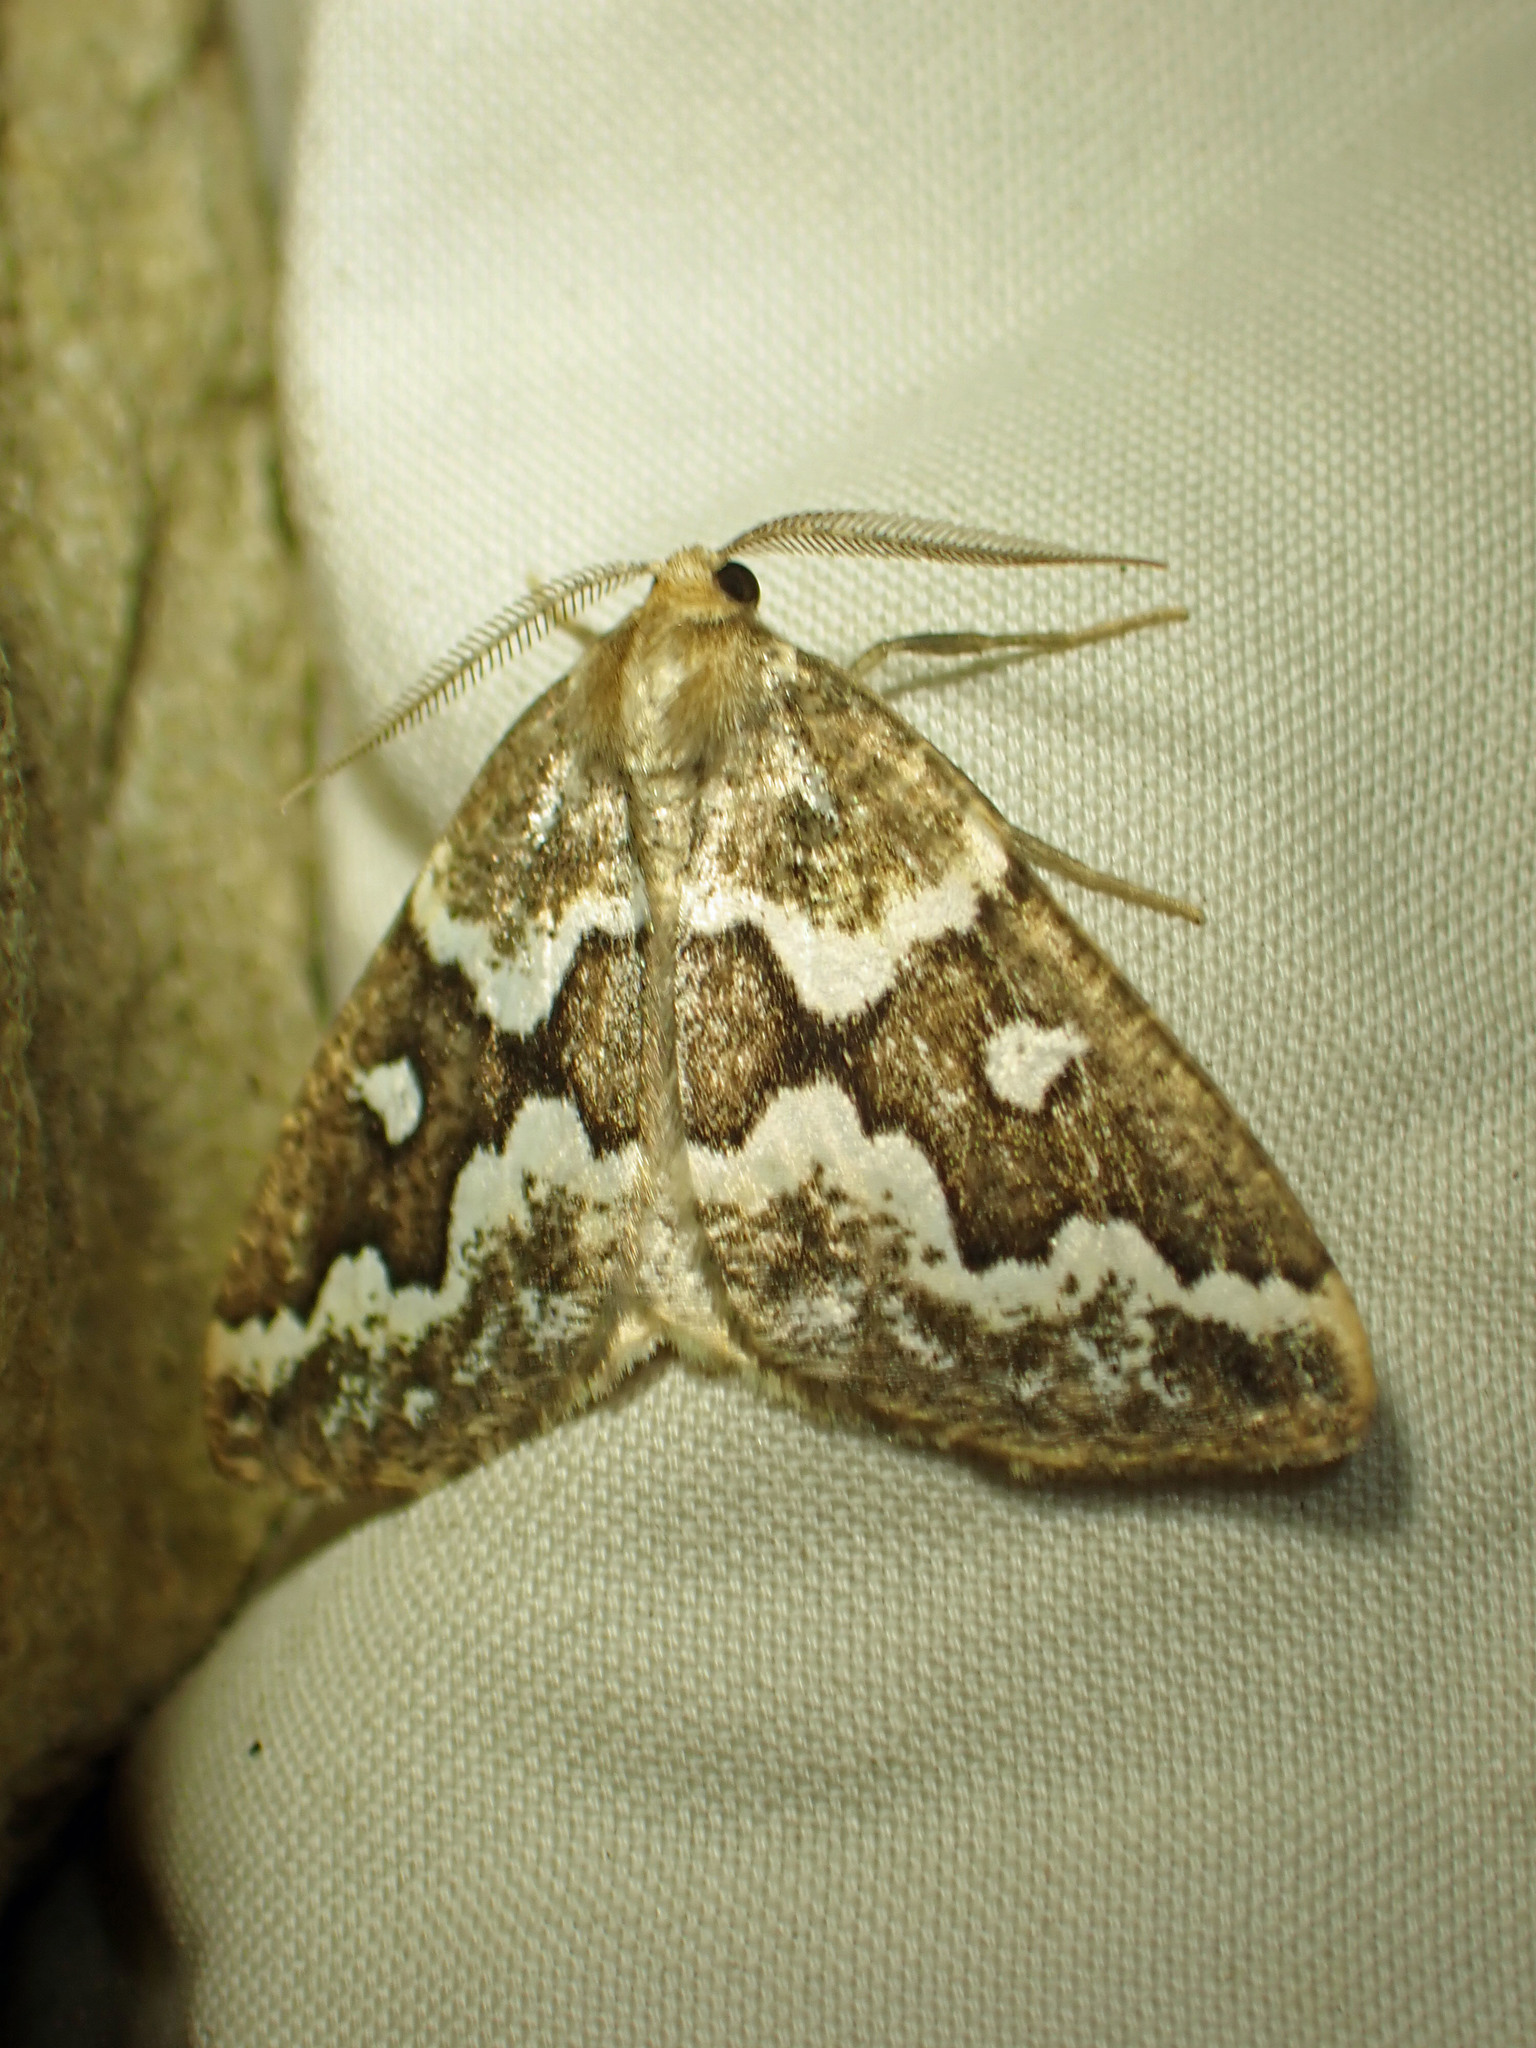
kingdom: Animalia
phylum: Arthropoda
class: Insecta
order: Lepidoptera
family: Geometridae
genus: Caripeta
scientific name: Caripeta divisata
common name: Gray spruce looper
